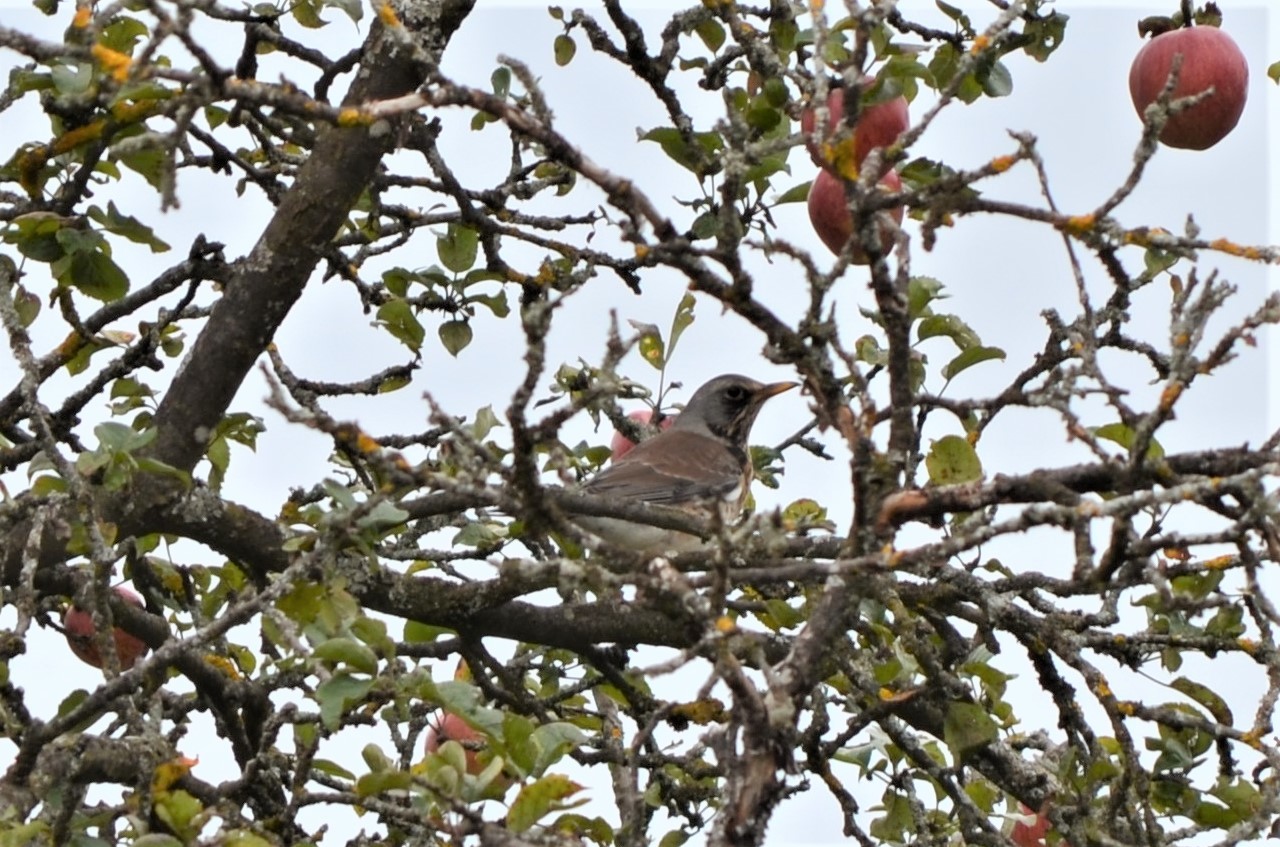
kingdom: Animalia
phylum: Chordata
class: Aves
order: Passeriformes
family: Turdidae
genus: Turdus
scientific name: Turdus pilaris
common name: Fieldfare
